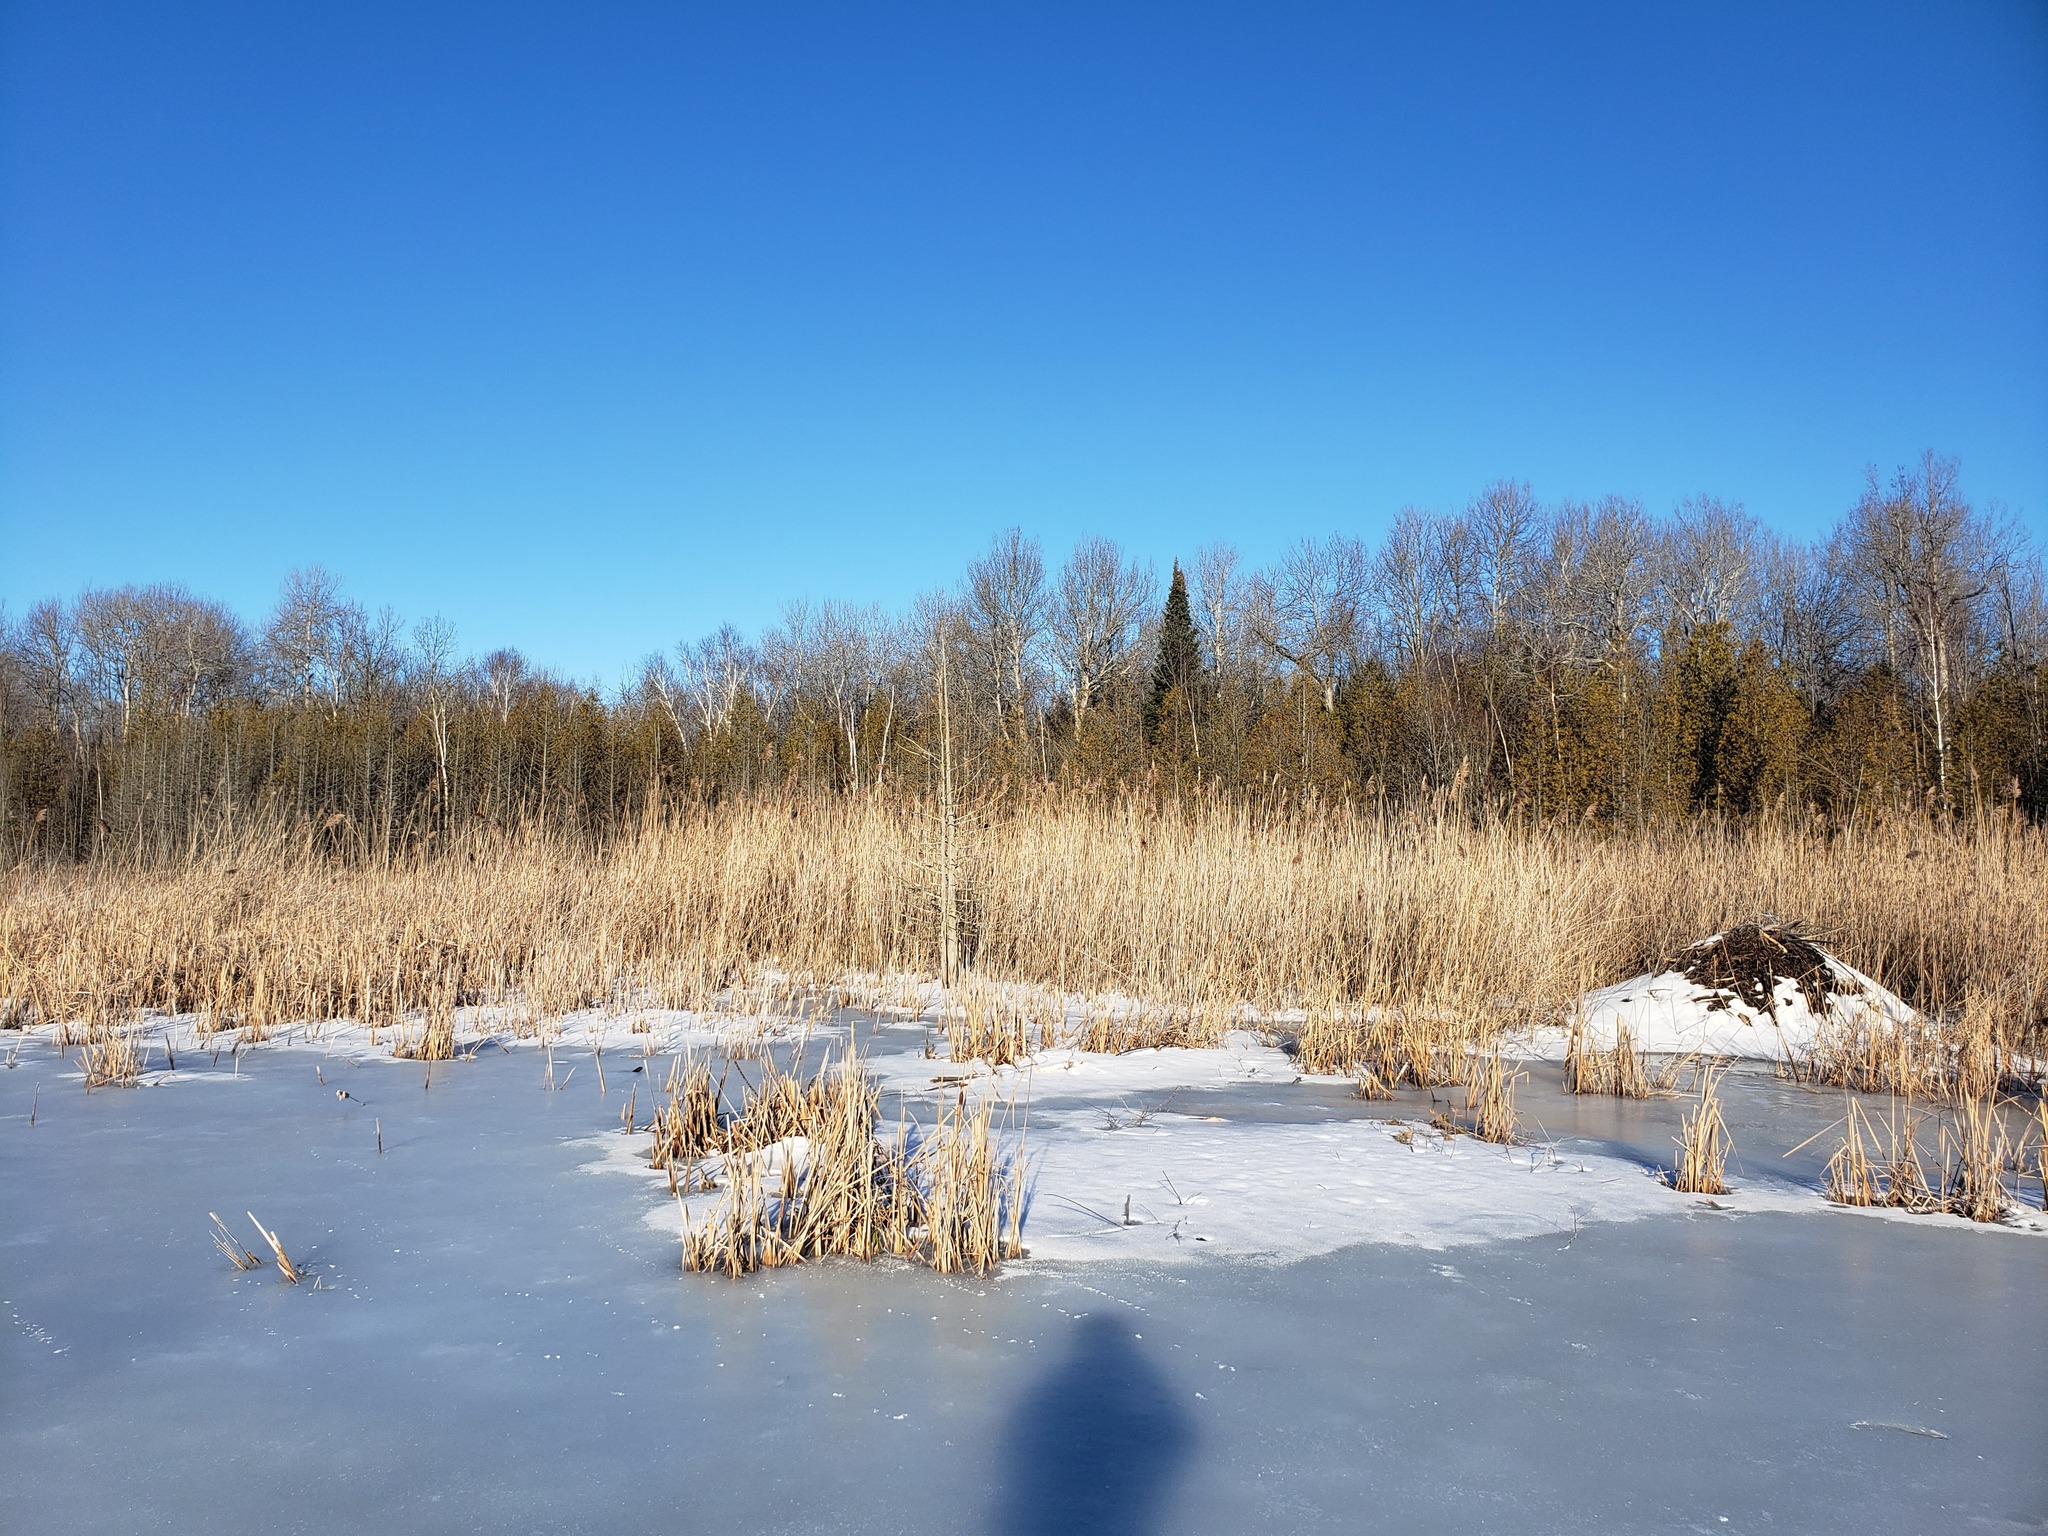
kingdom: Plantae
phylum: Tracheophyta
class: Liliopsida
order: Poales
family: Poaceae
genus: Phragmites
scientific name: Phragmites australis
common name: Common reed
